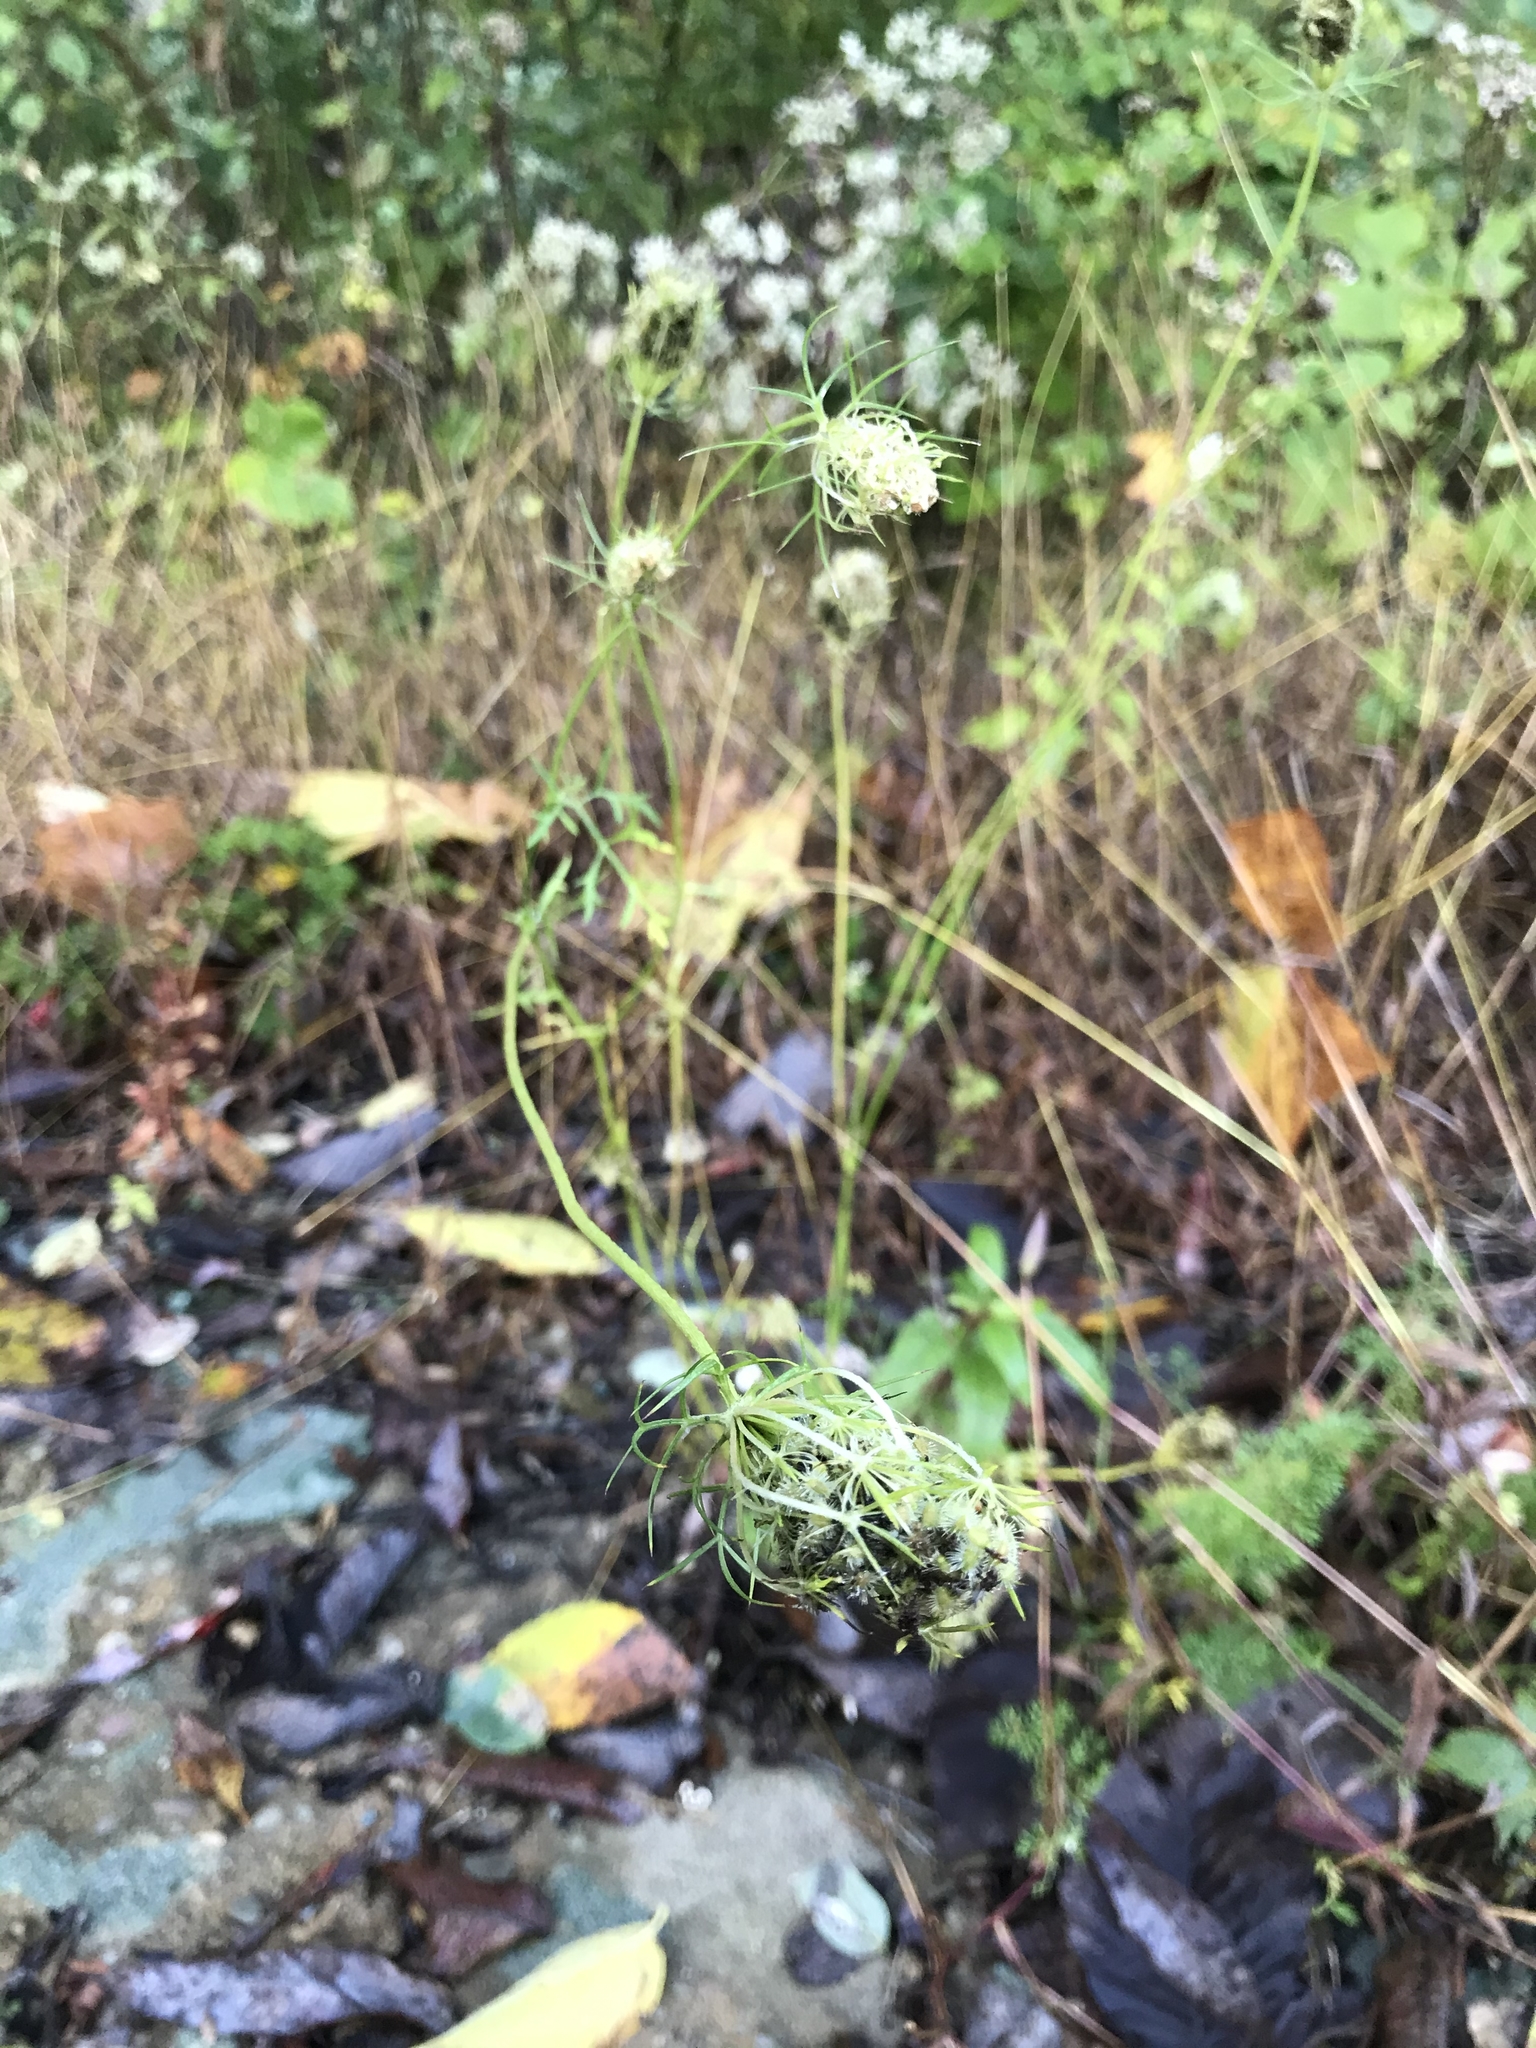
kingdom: Plantae
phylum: Tracheophyta
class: Magnoliopsida
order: Apiales
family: Apiaceae
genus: Daucus
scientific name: Daucus carota
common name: Wild carrot
